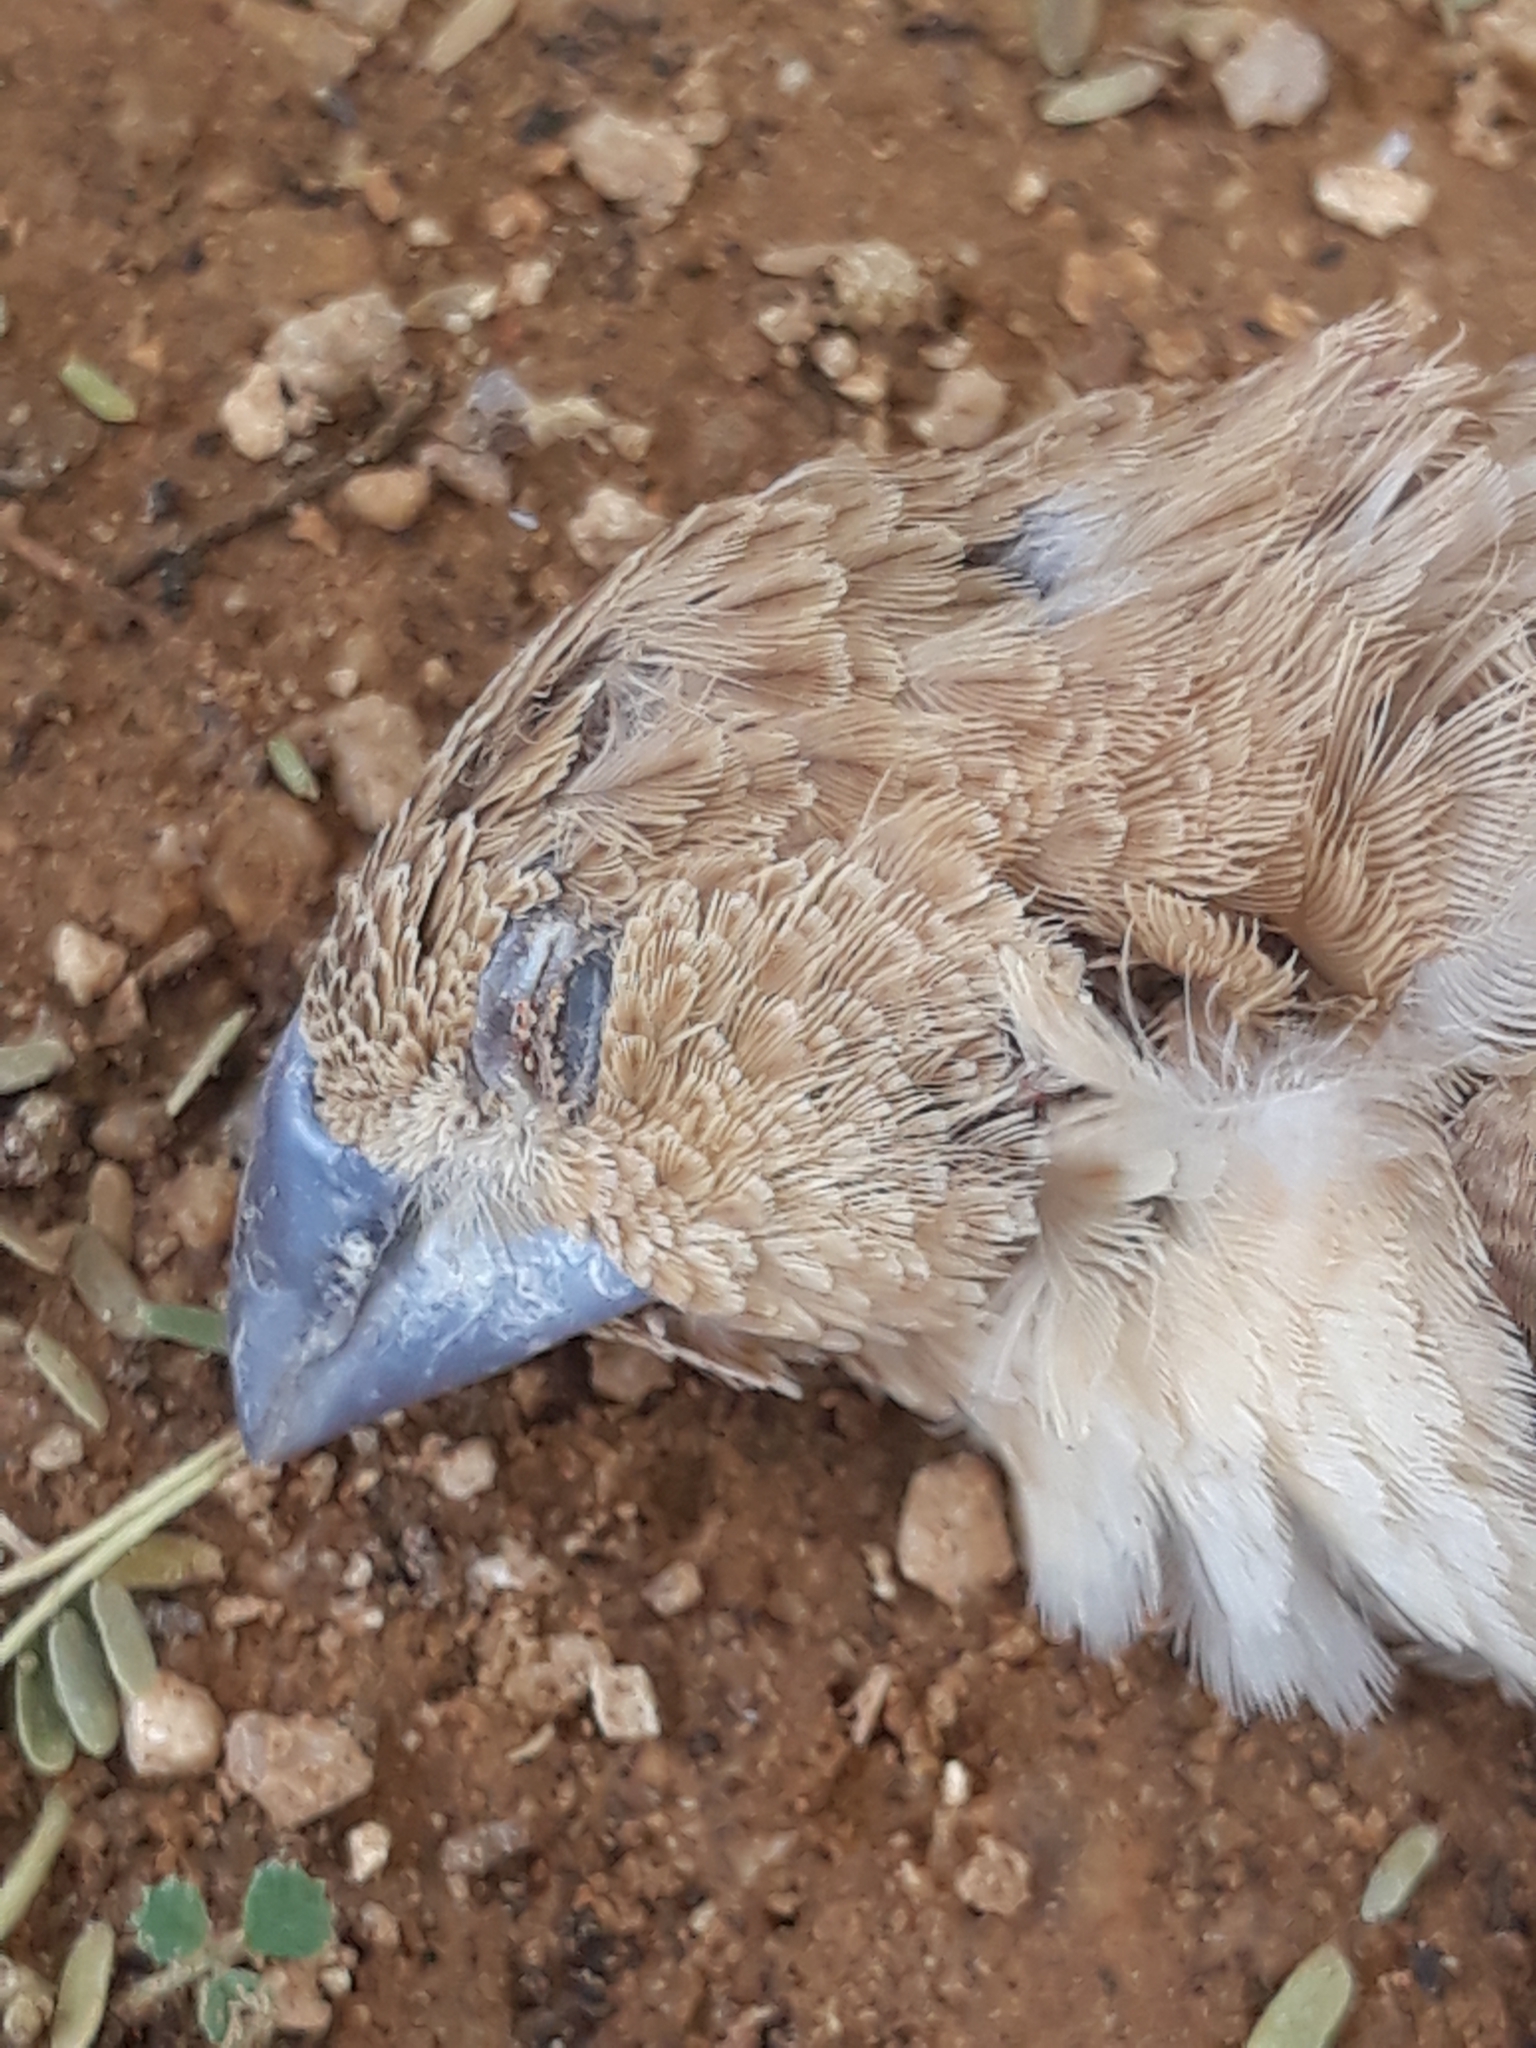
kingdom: Animalia
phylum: Chordata
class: Aves
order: Passeriformes
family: Estrildidae
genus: Euodice
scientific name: Euodice cantans
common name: African silverbill
